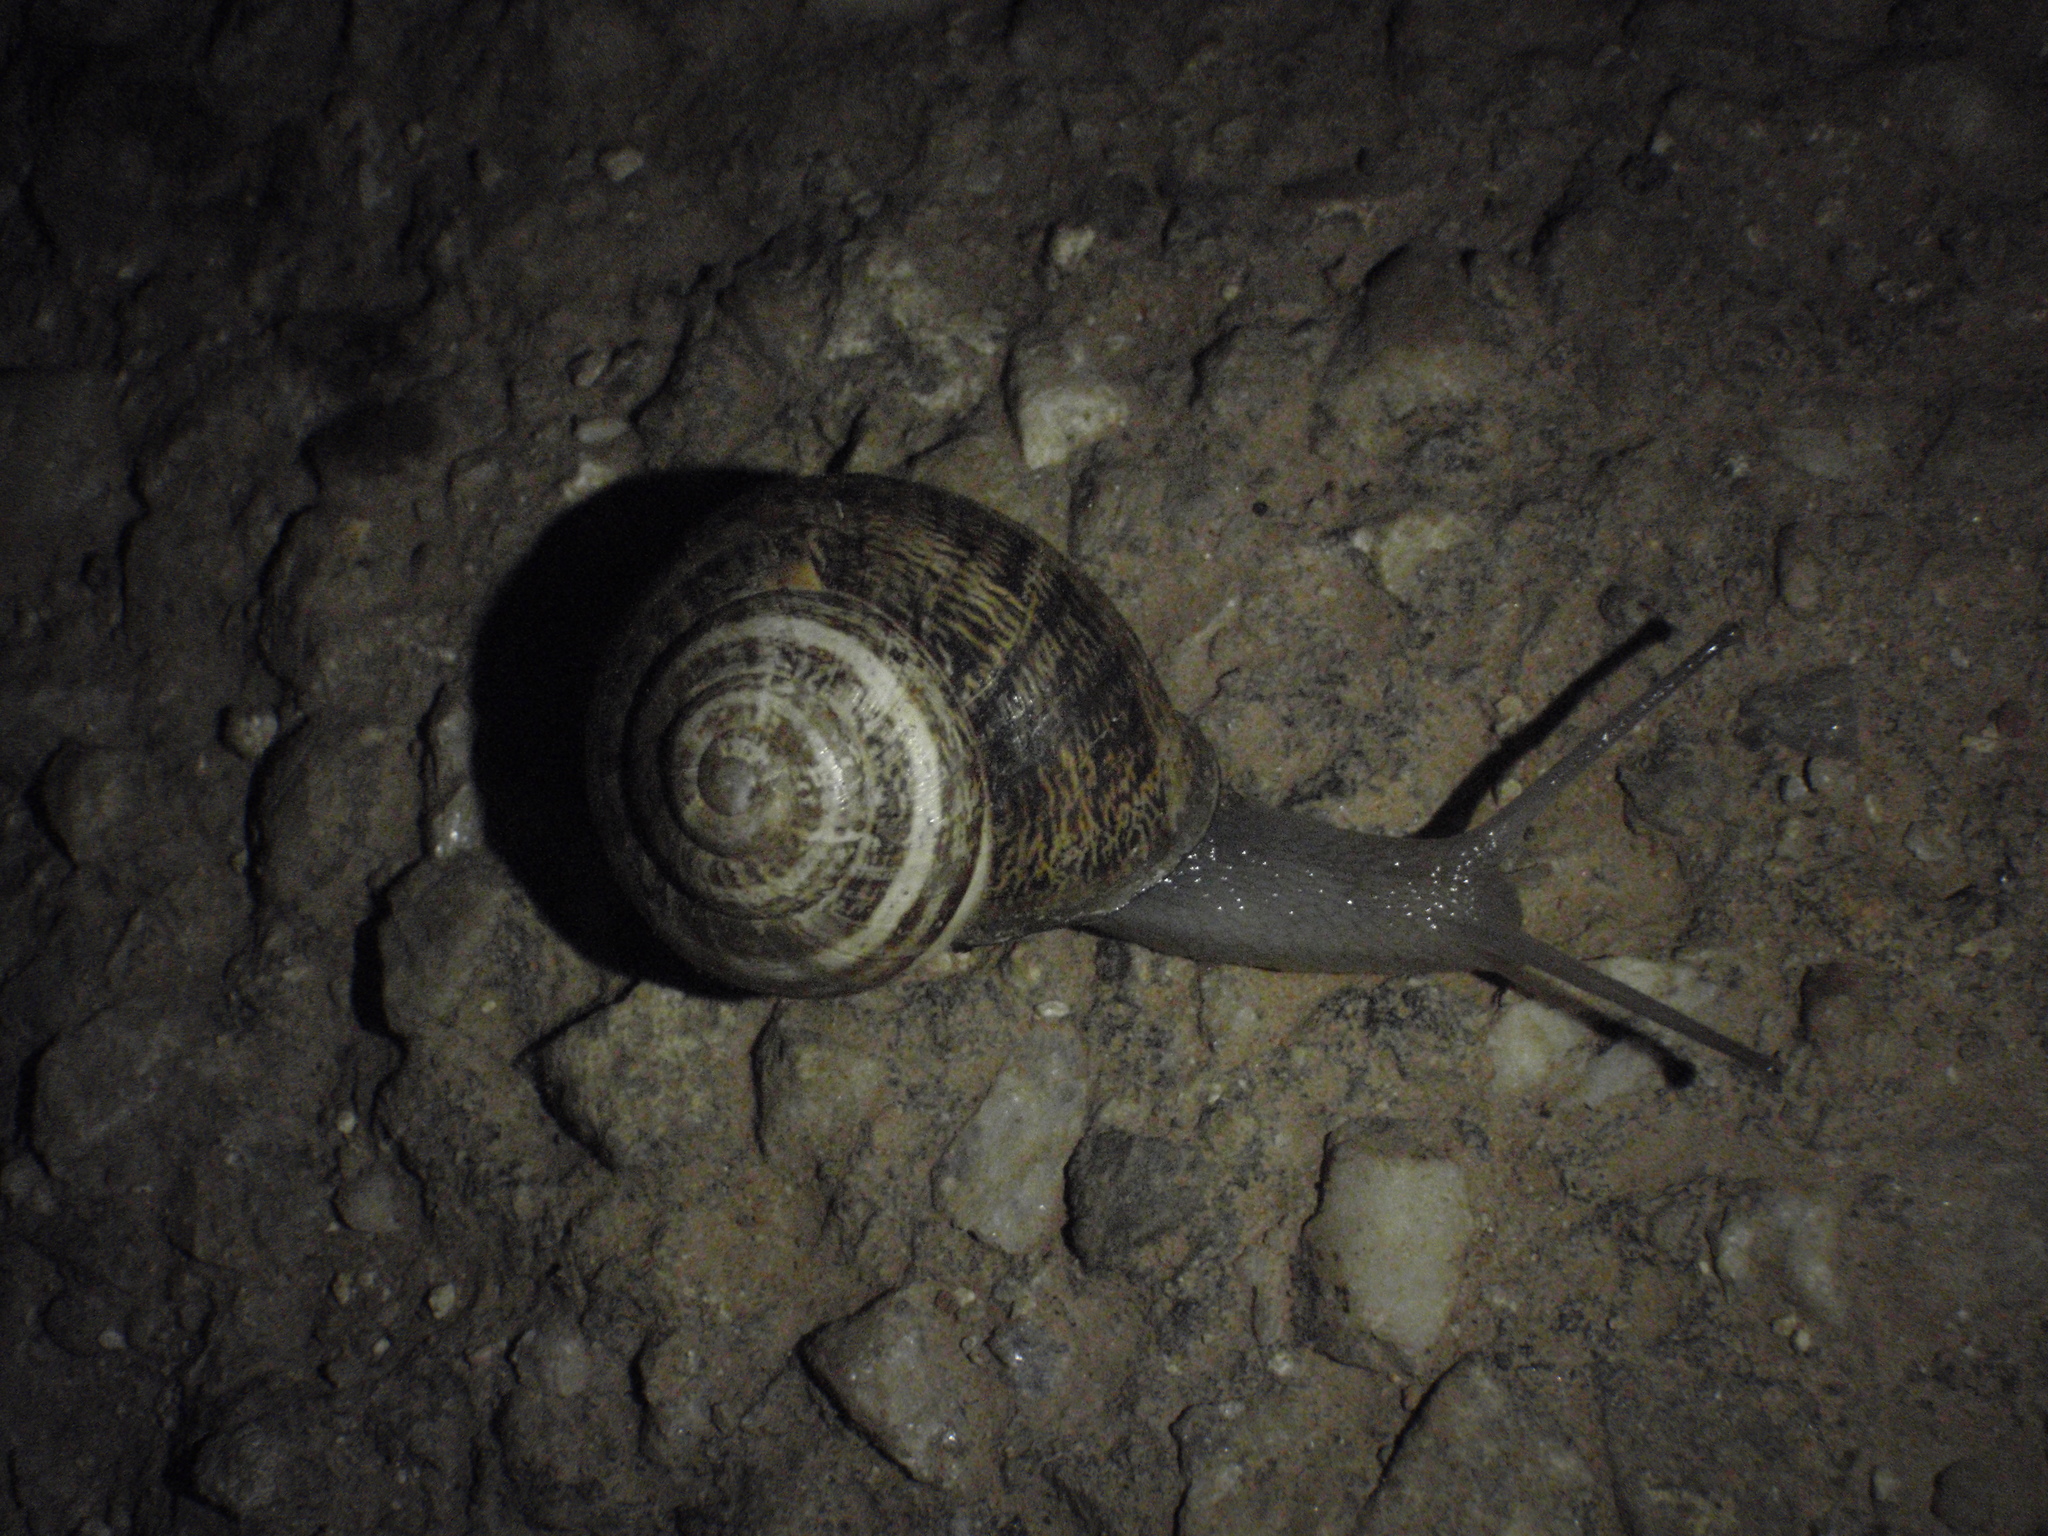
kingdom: Animalia
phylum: Mollusca
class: Gastropoda
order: Stylommatophora
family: Helicidae
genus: Eobania
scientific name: Eobania vermiculata
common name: Chocolateband snail
